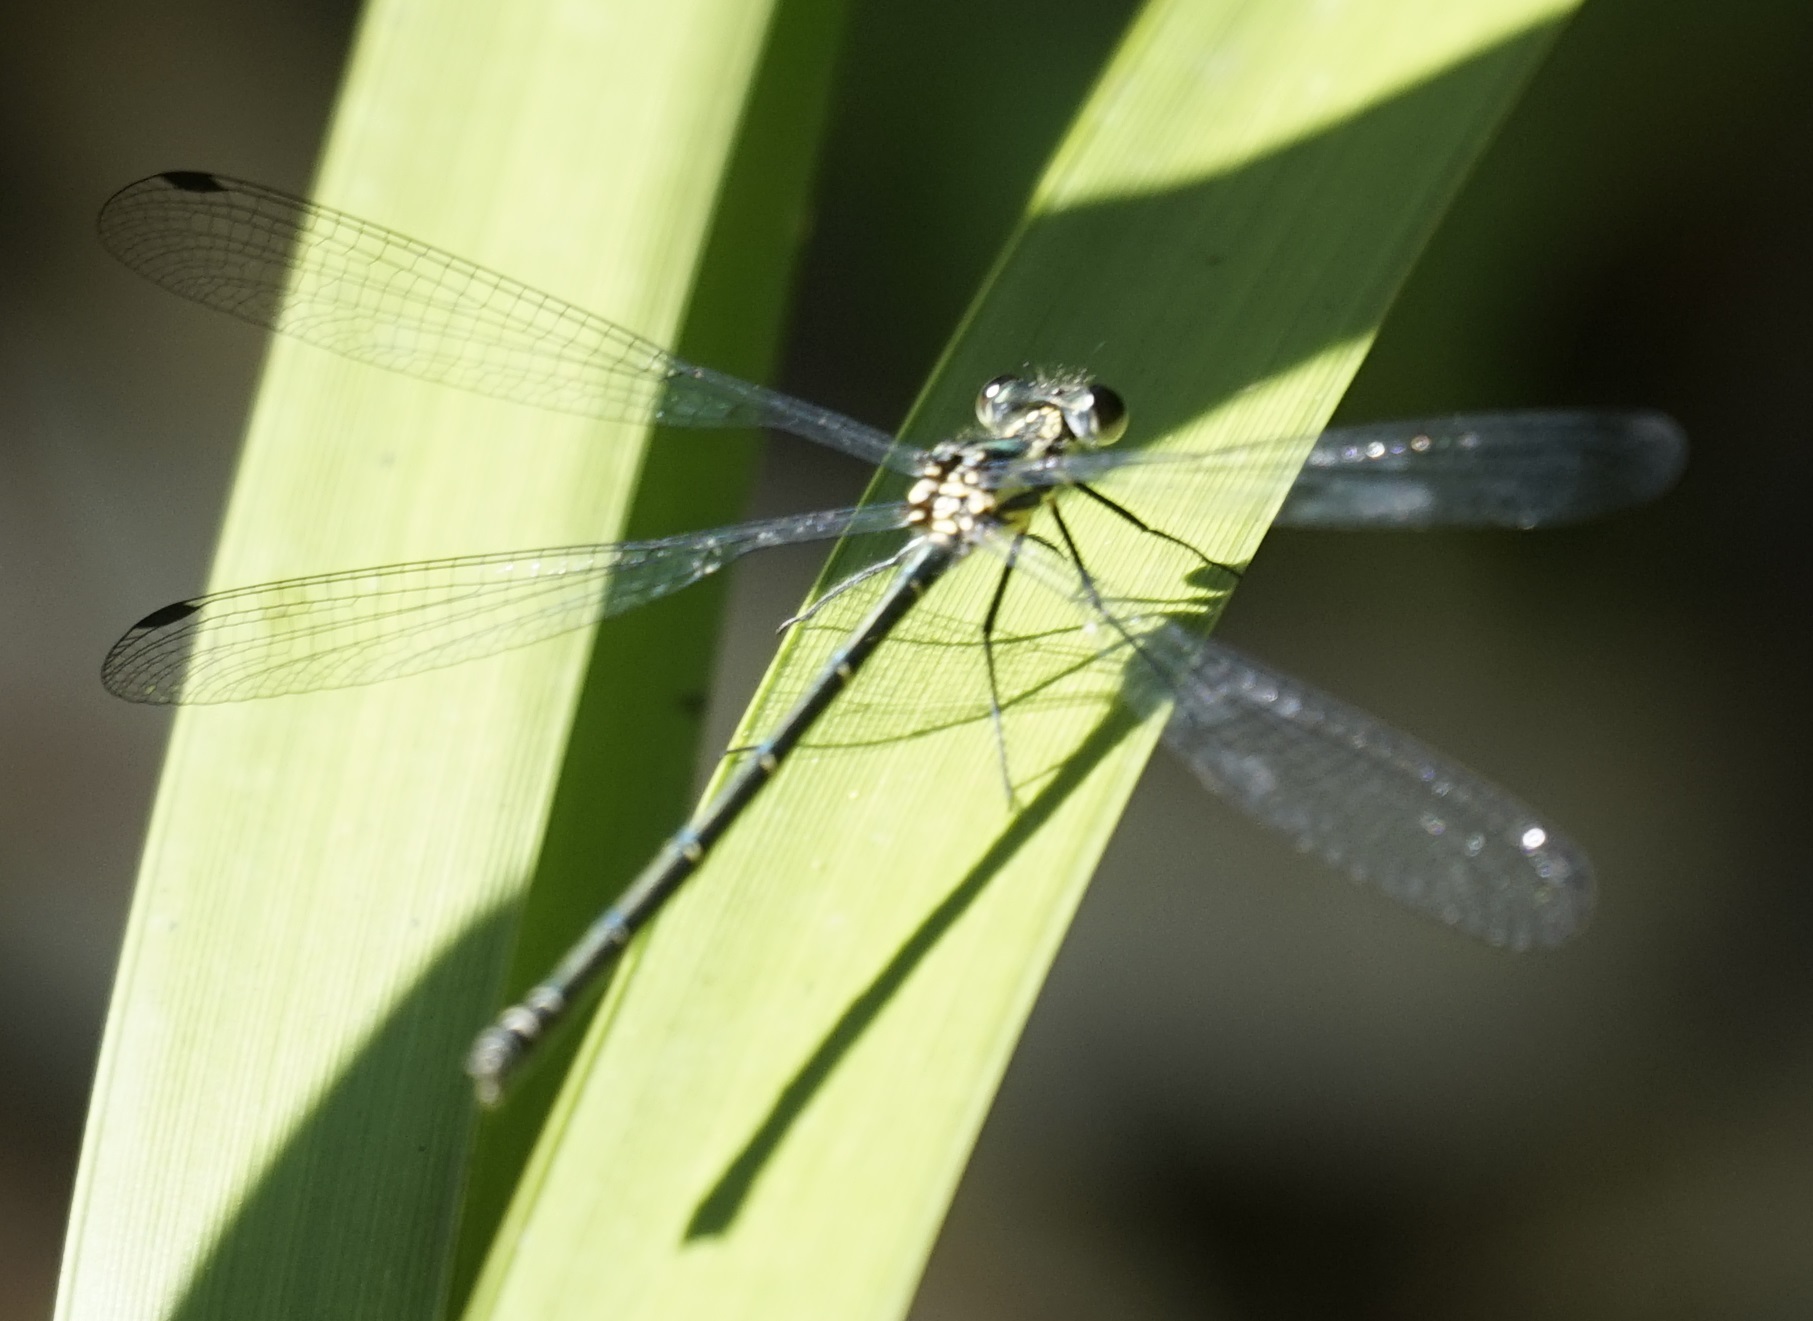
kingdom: Animalia
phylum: Arthropoda
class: Insecta
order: Odonata
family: Argiolestidae
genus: Austroargiolestes
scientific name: Austroargiolestes icteromelas
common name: Common flatwing
